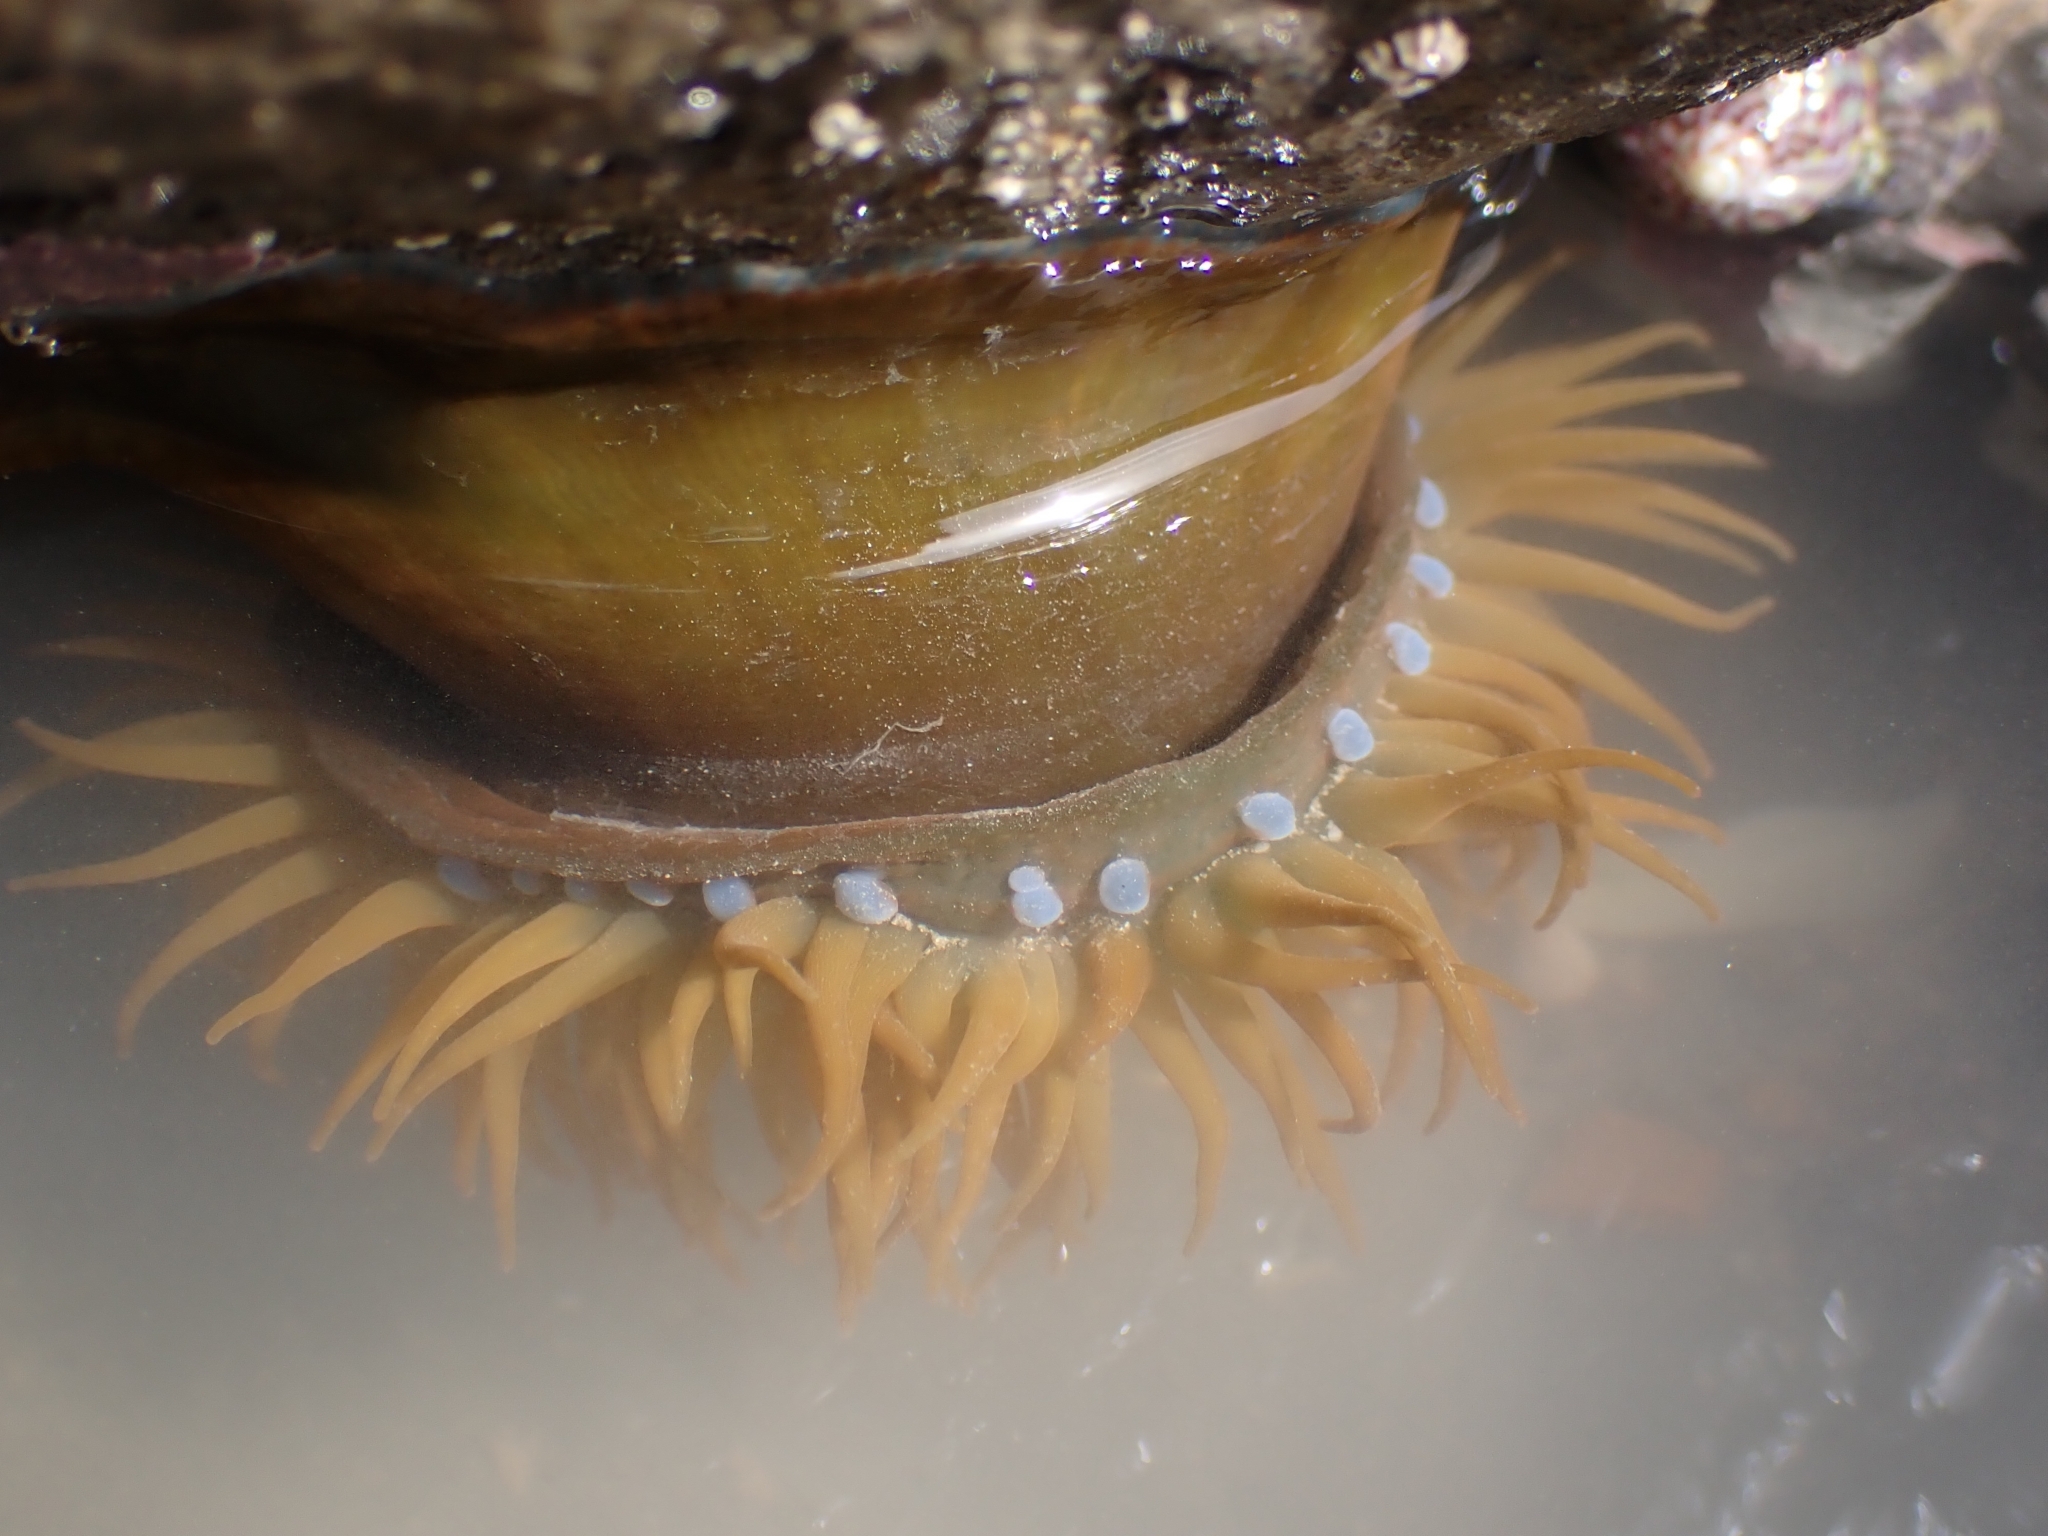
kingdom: Animalia
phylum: Cnidaria
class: Anthozoa
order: Actiniaria
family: Actiniidae
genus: Actinia
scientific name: Actinia equina
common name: Beadlet anemone
